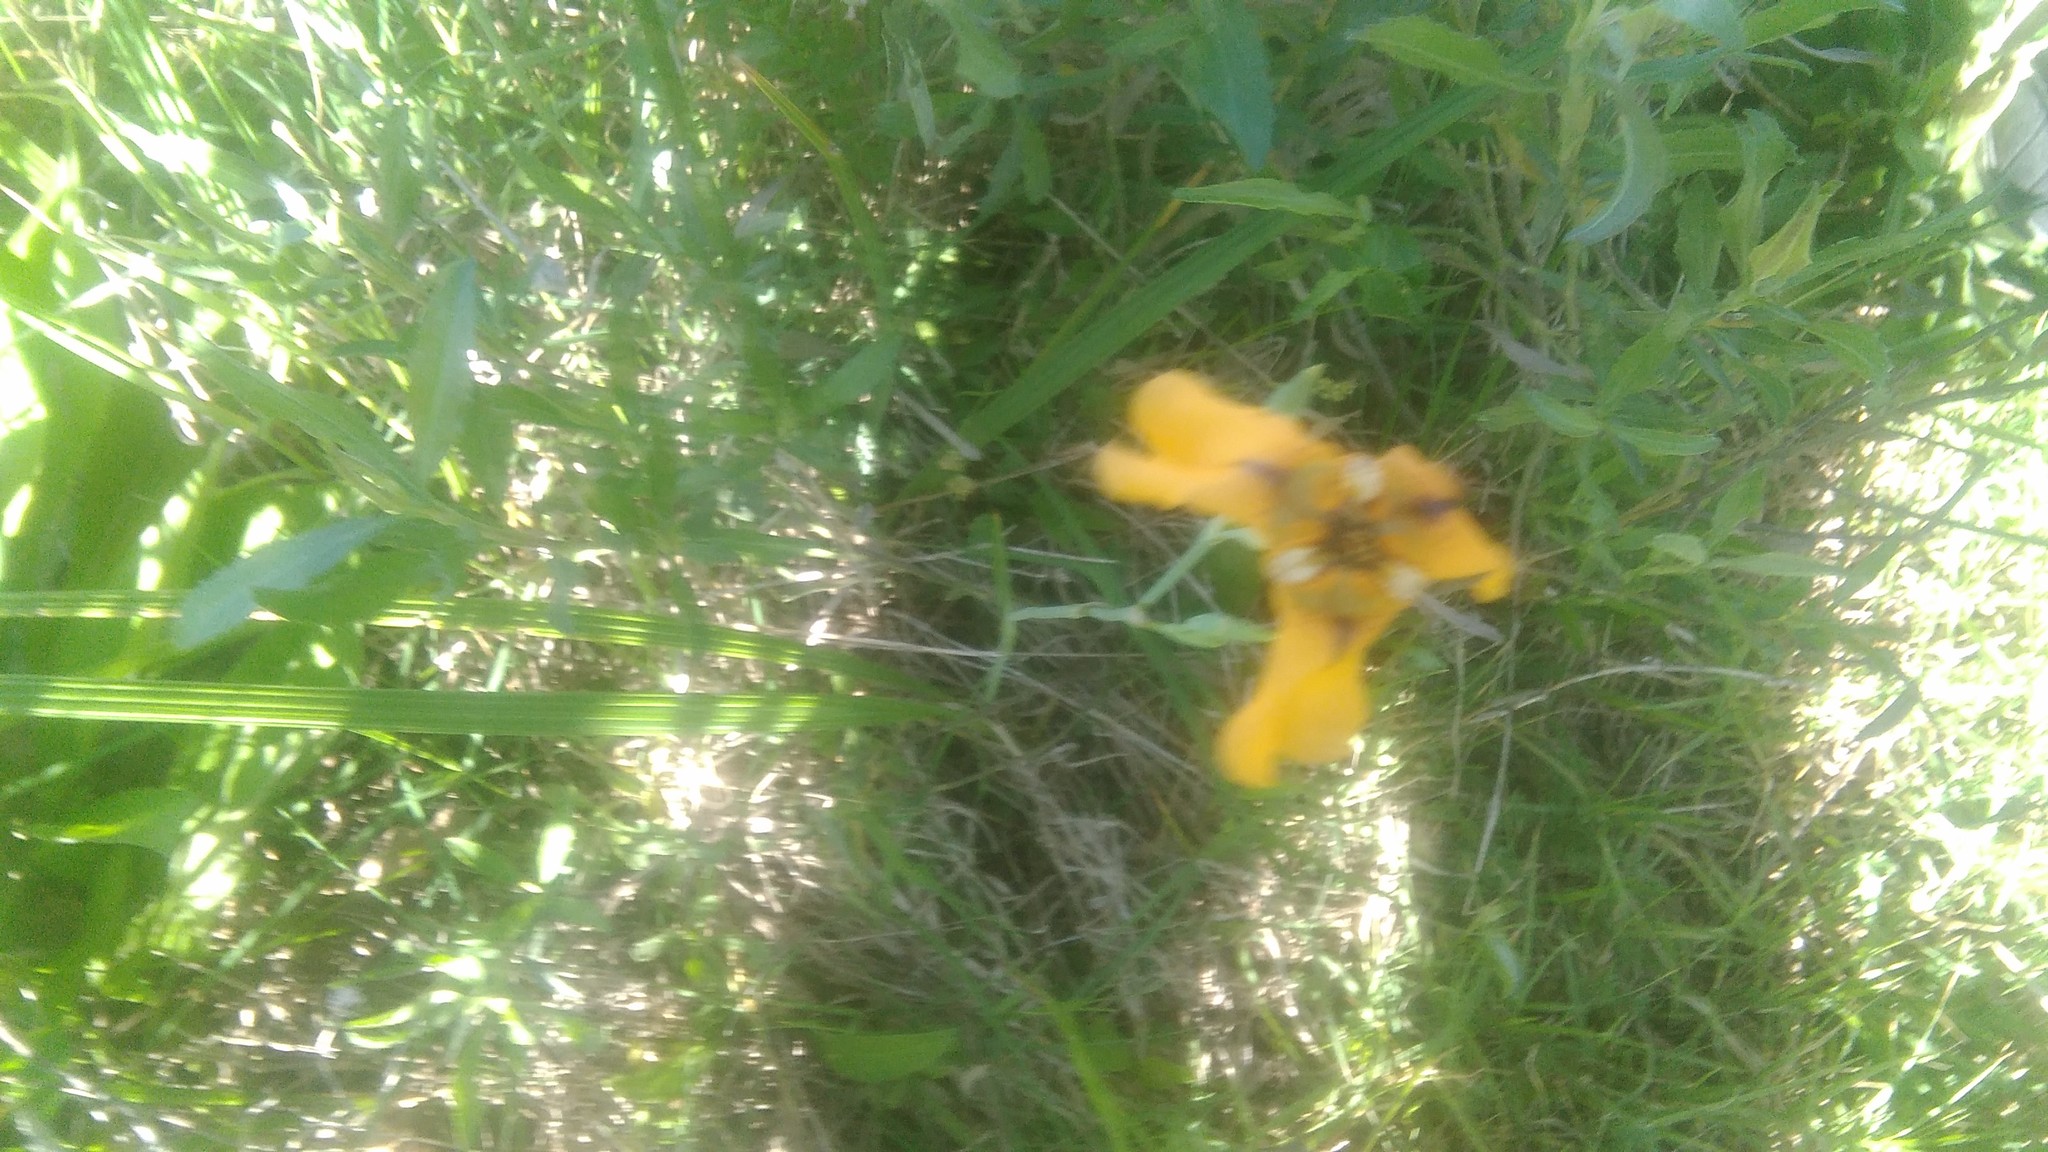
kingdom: Plantae
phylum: Tracheophyta
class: Liliopsida
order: Asparagales
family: Iridaceae
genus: Cypella
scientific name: Cypella herbertii
